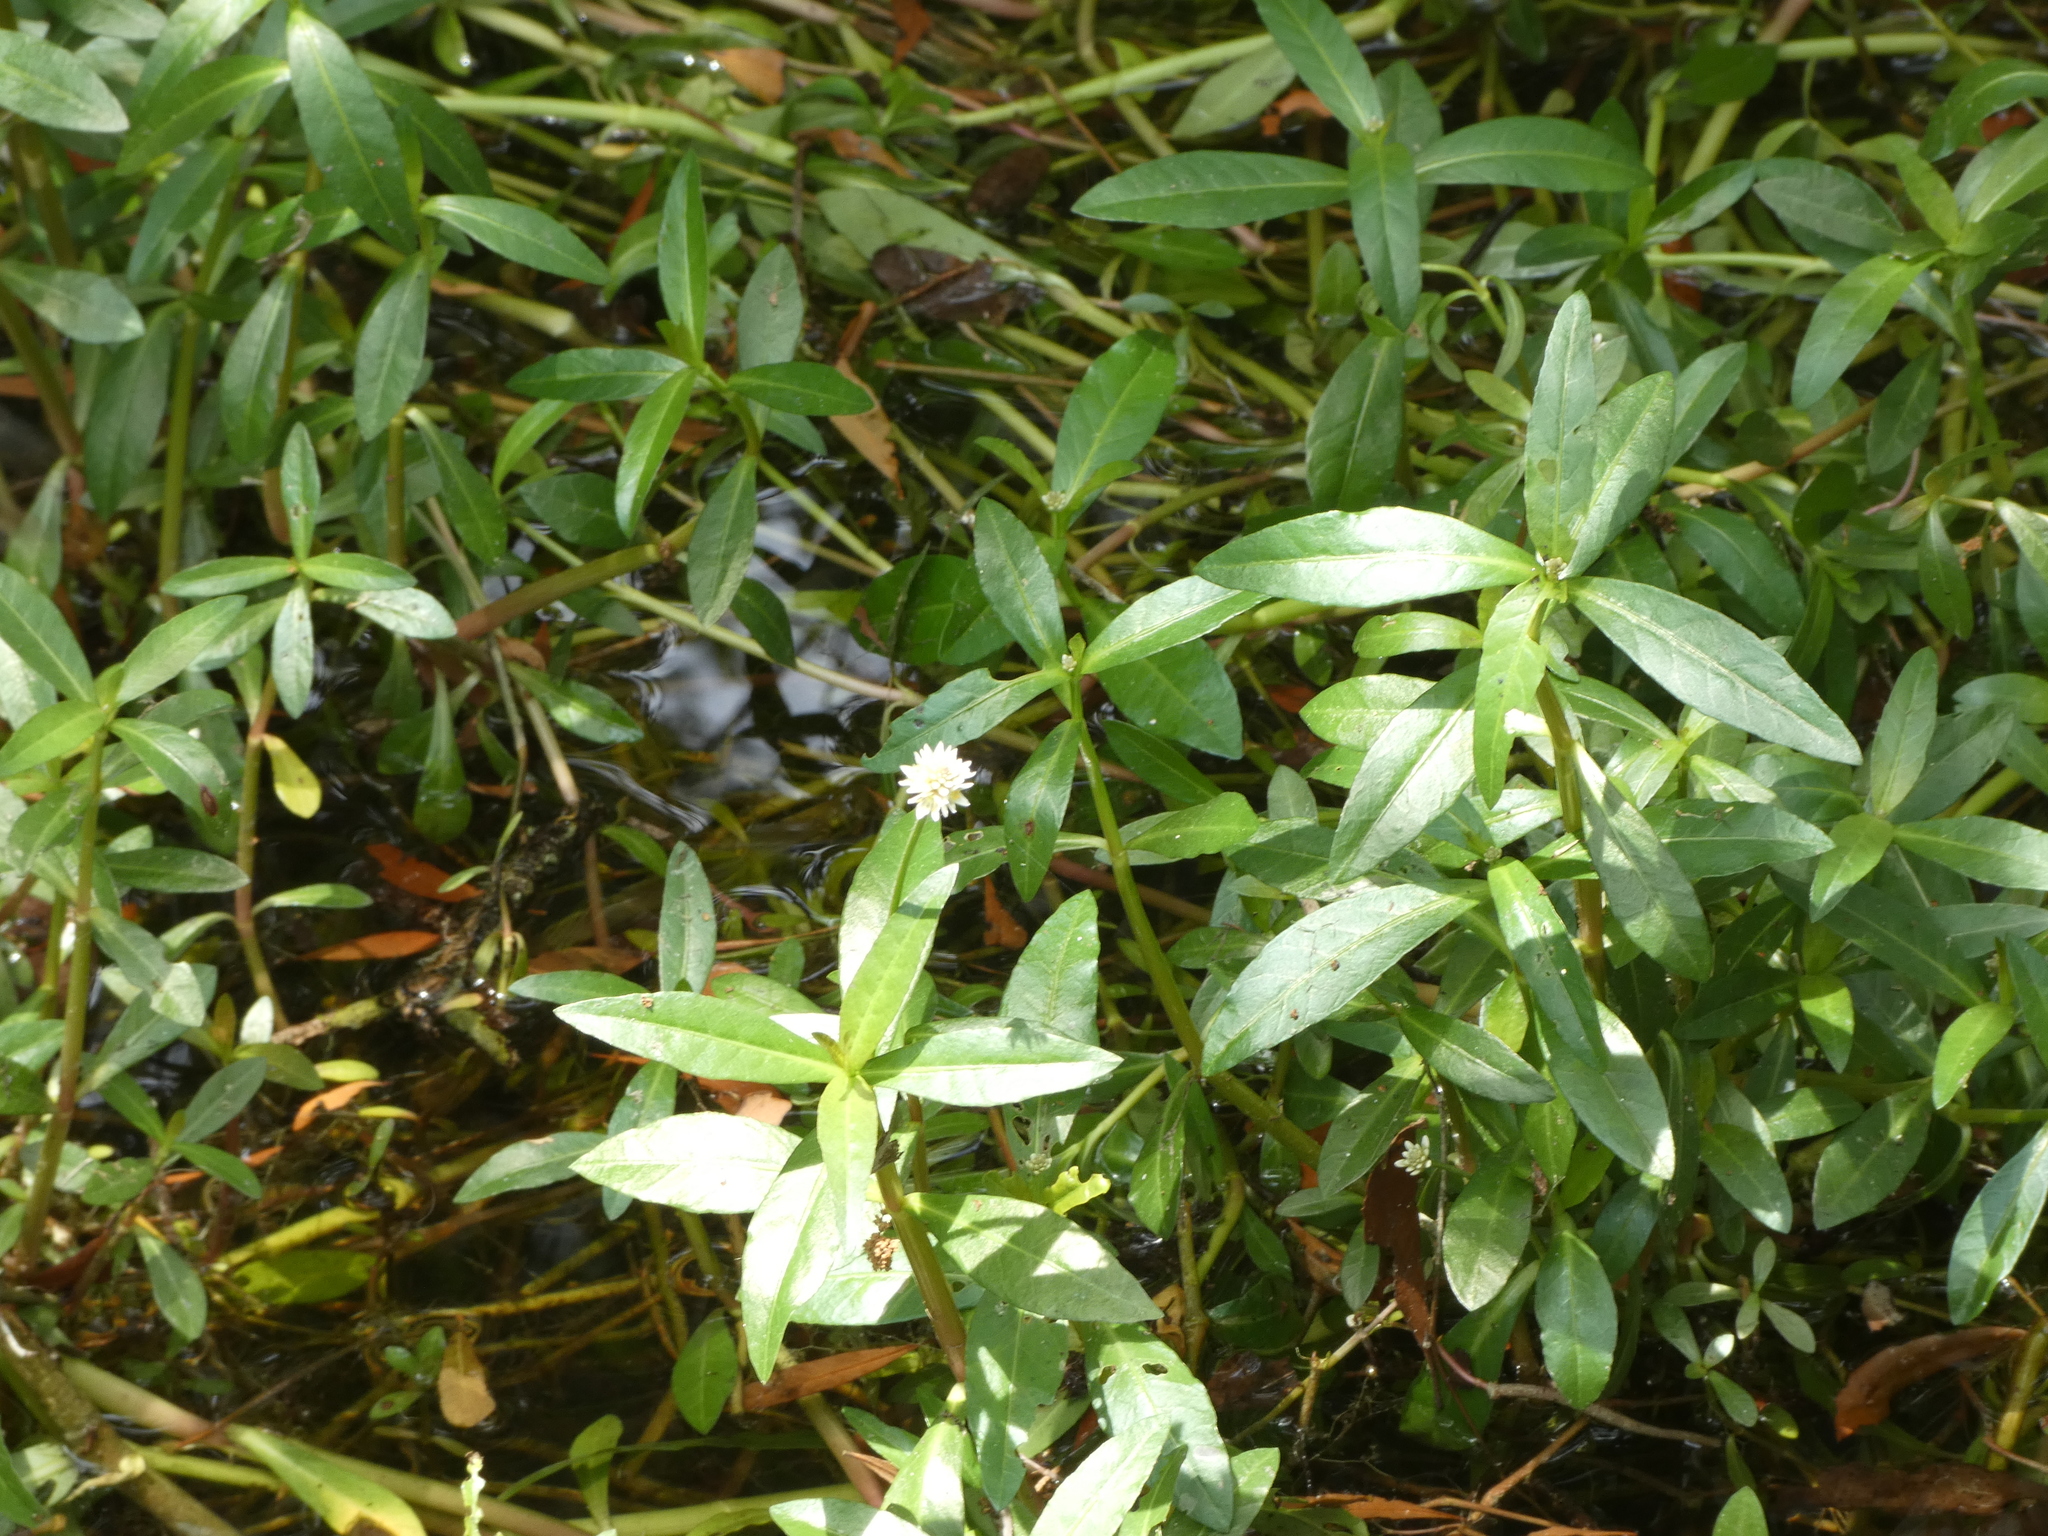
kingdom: Plantae
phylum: Tracheophyta
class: Magnoliopsida
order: Caryophyllales
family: Amaranthaceae
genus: Alternanthera
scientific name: Alternanthera philoxeroides
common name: Alligatorweed
